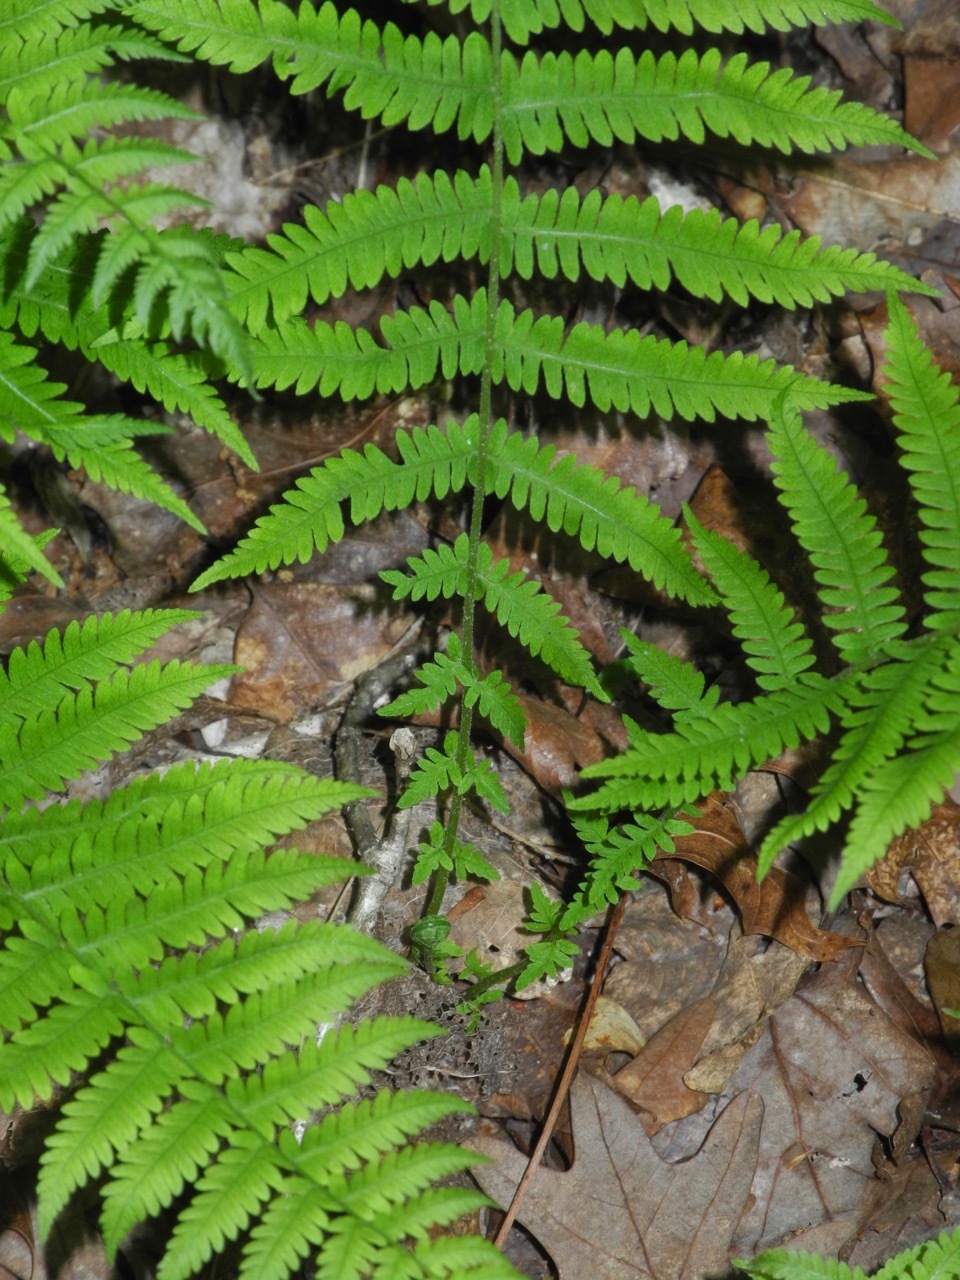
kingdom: Plantae
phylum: Tracheophyta
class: Polypodiopsida
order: Polypodiales
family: Thelypteridaceae
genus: Amauropelta
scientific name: Amauropelta noveboracensis
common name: New york fern
